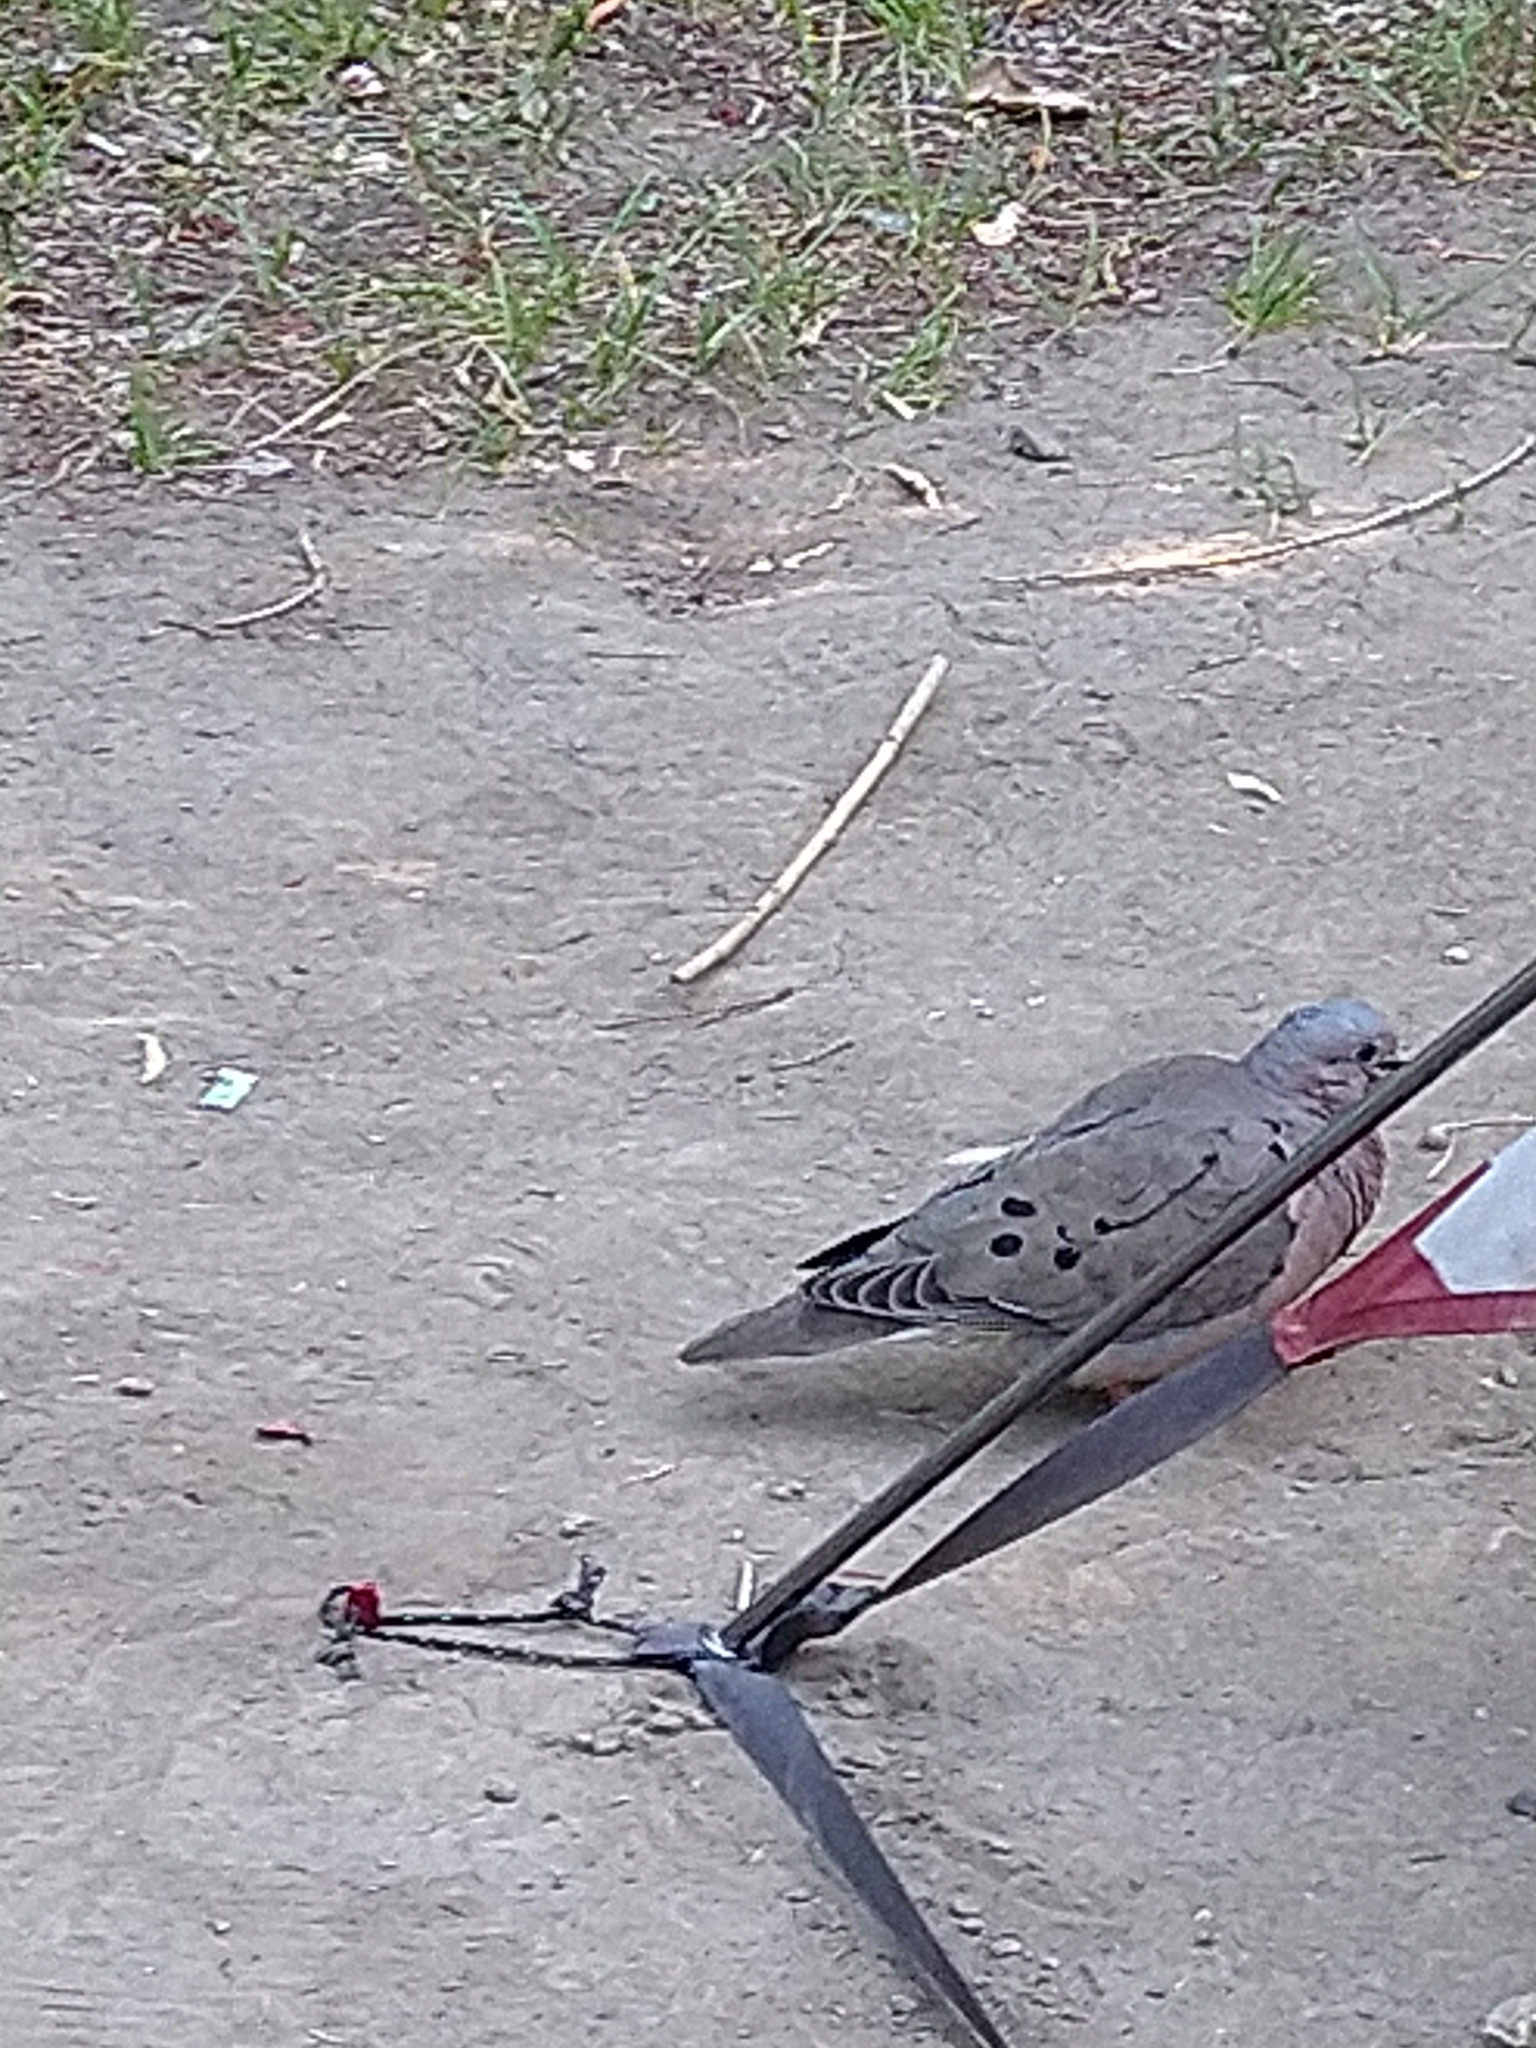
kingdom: Animalia
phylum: Chordata
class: Aves
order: Columbiformes
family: Columbidae
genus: Zenaida
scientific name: Zenaida auriculata
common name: Eared dove
